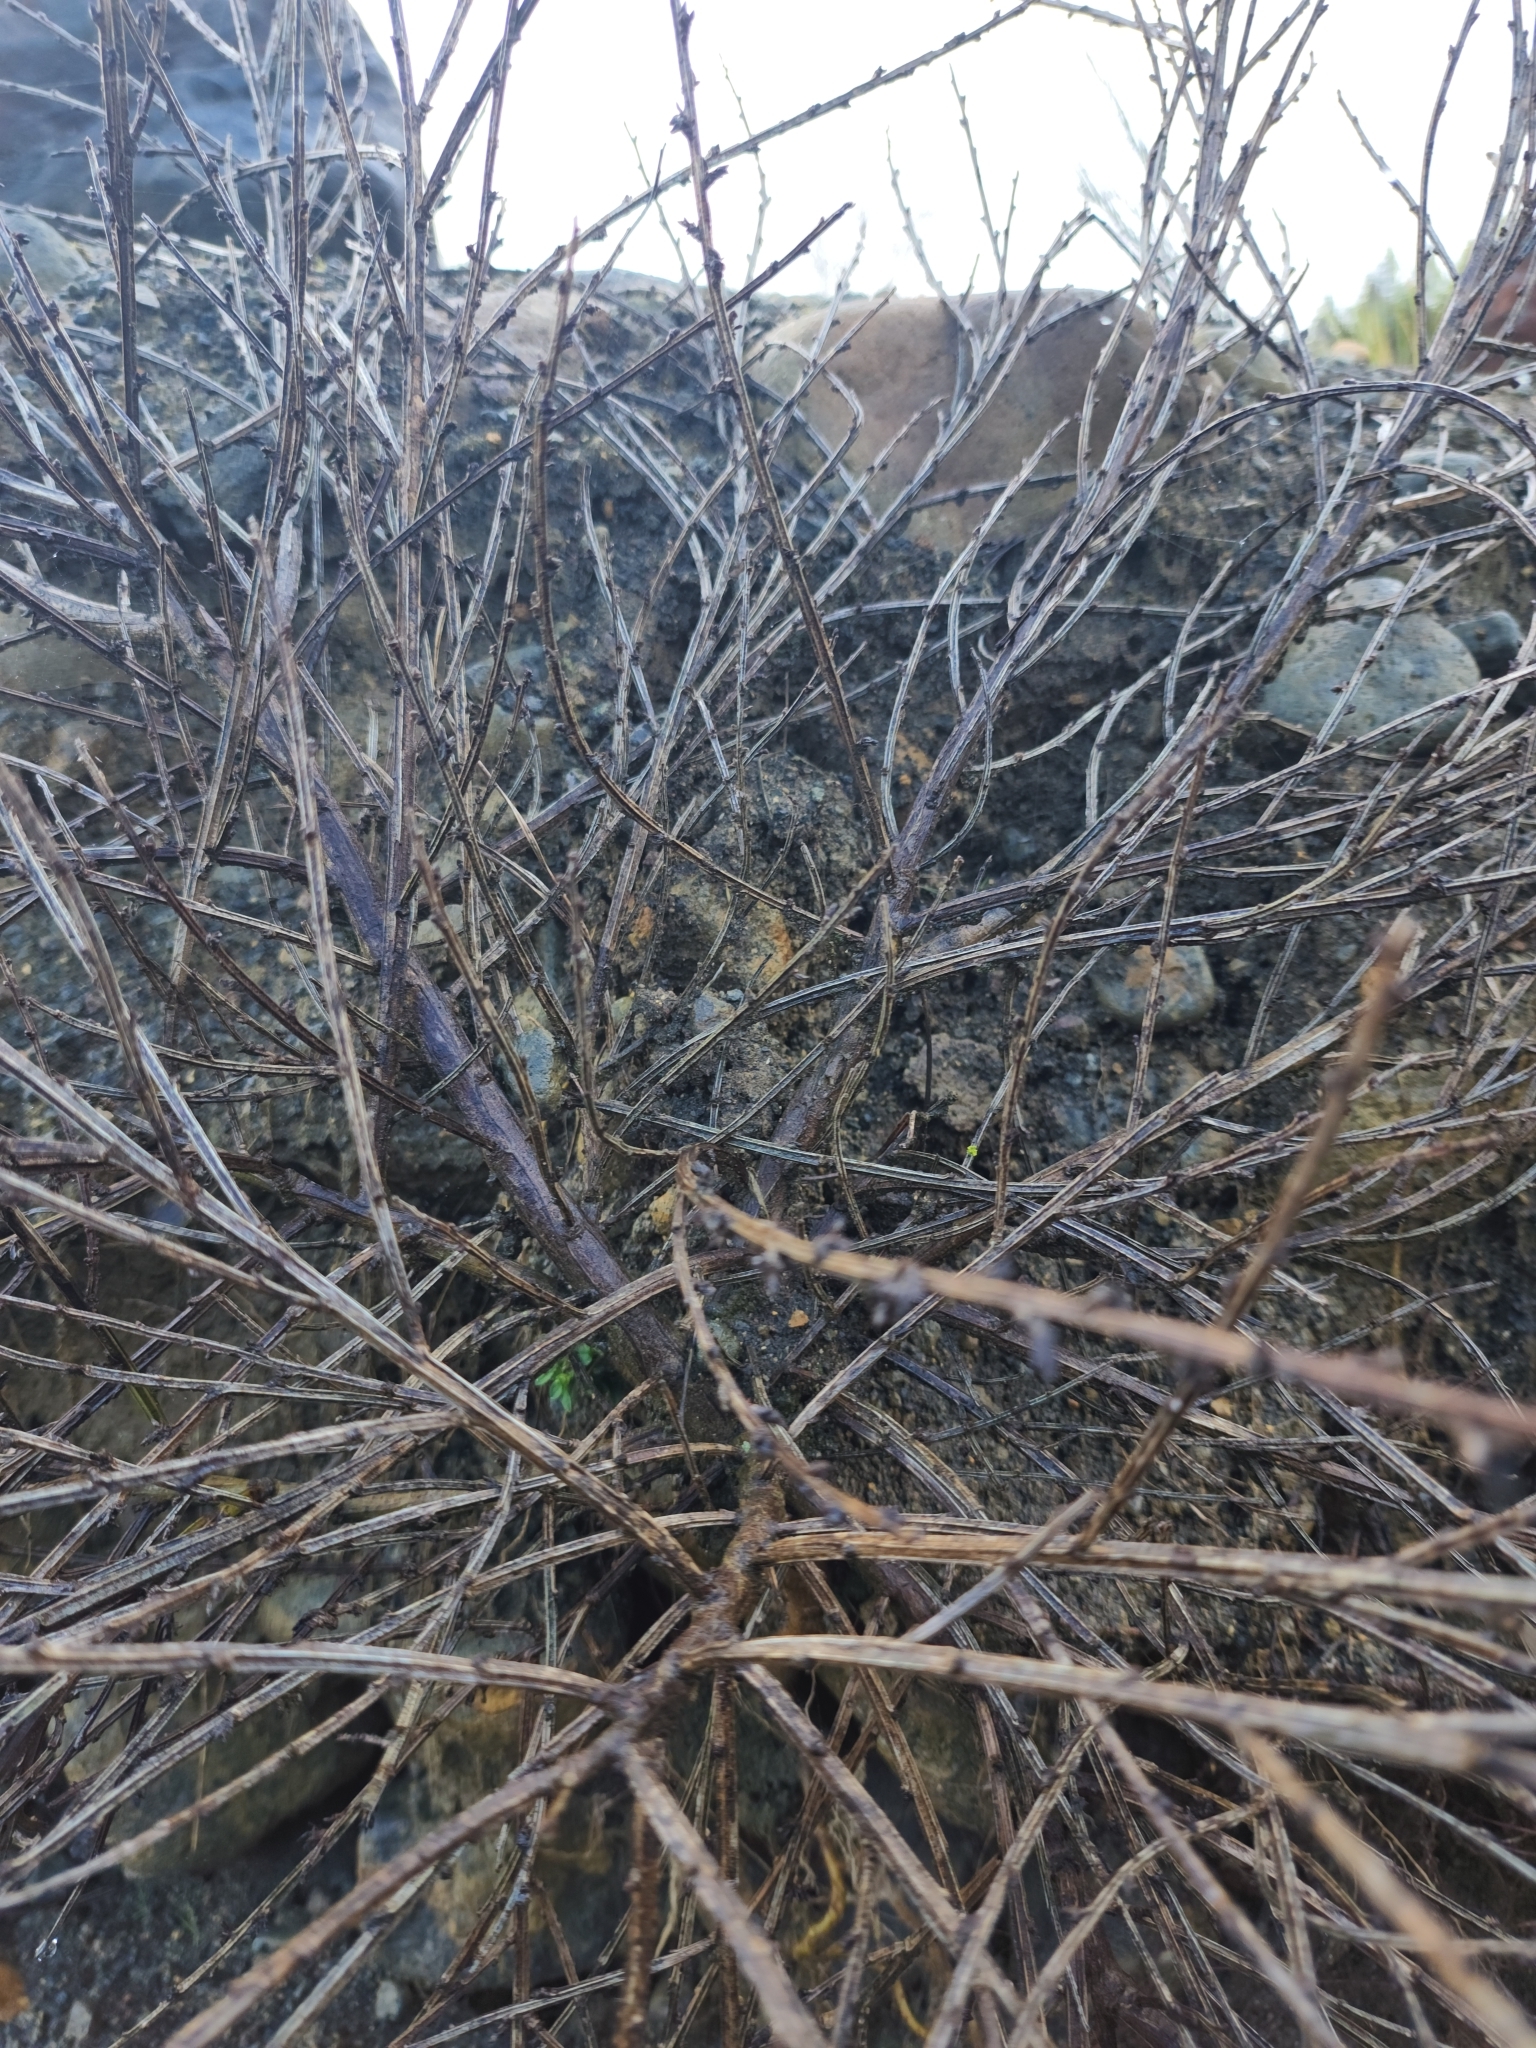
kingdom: Plantae
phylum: Tracheophyta
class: Magnoliopsida
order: Fabales
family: Fabaceae
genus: Cytisus
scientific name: Cytisus scoparius
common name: Scotch broom
